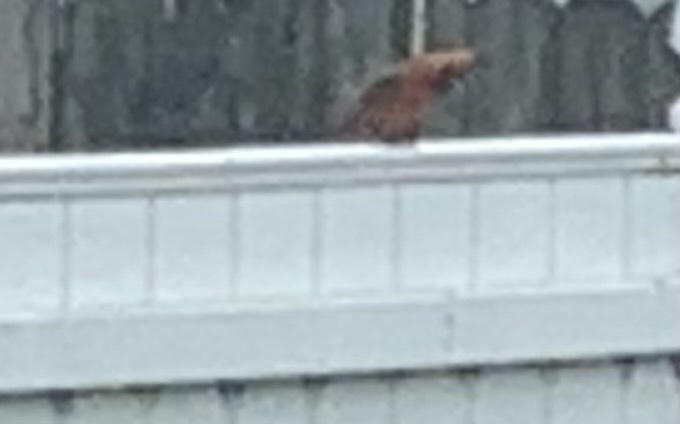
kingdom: Animalia
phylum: Chordata
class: Aves
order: Passeriformes
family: Cardinalidae
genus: Cardinalis
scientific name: Cardinalis cardinalis
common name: Northern cardinal
